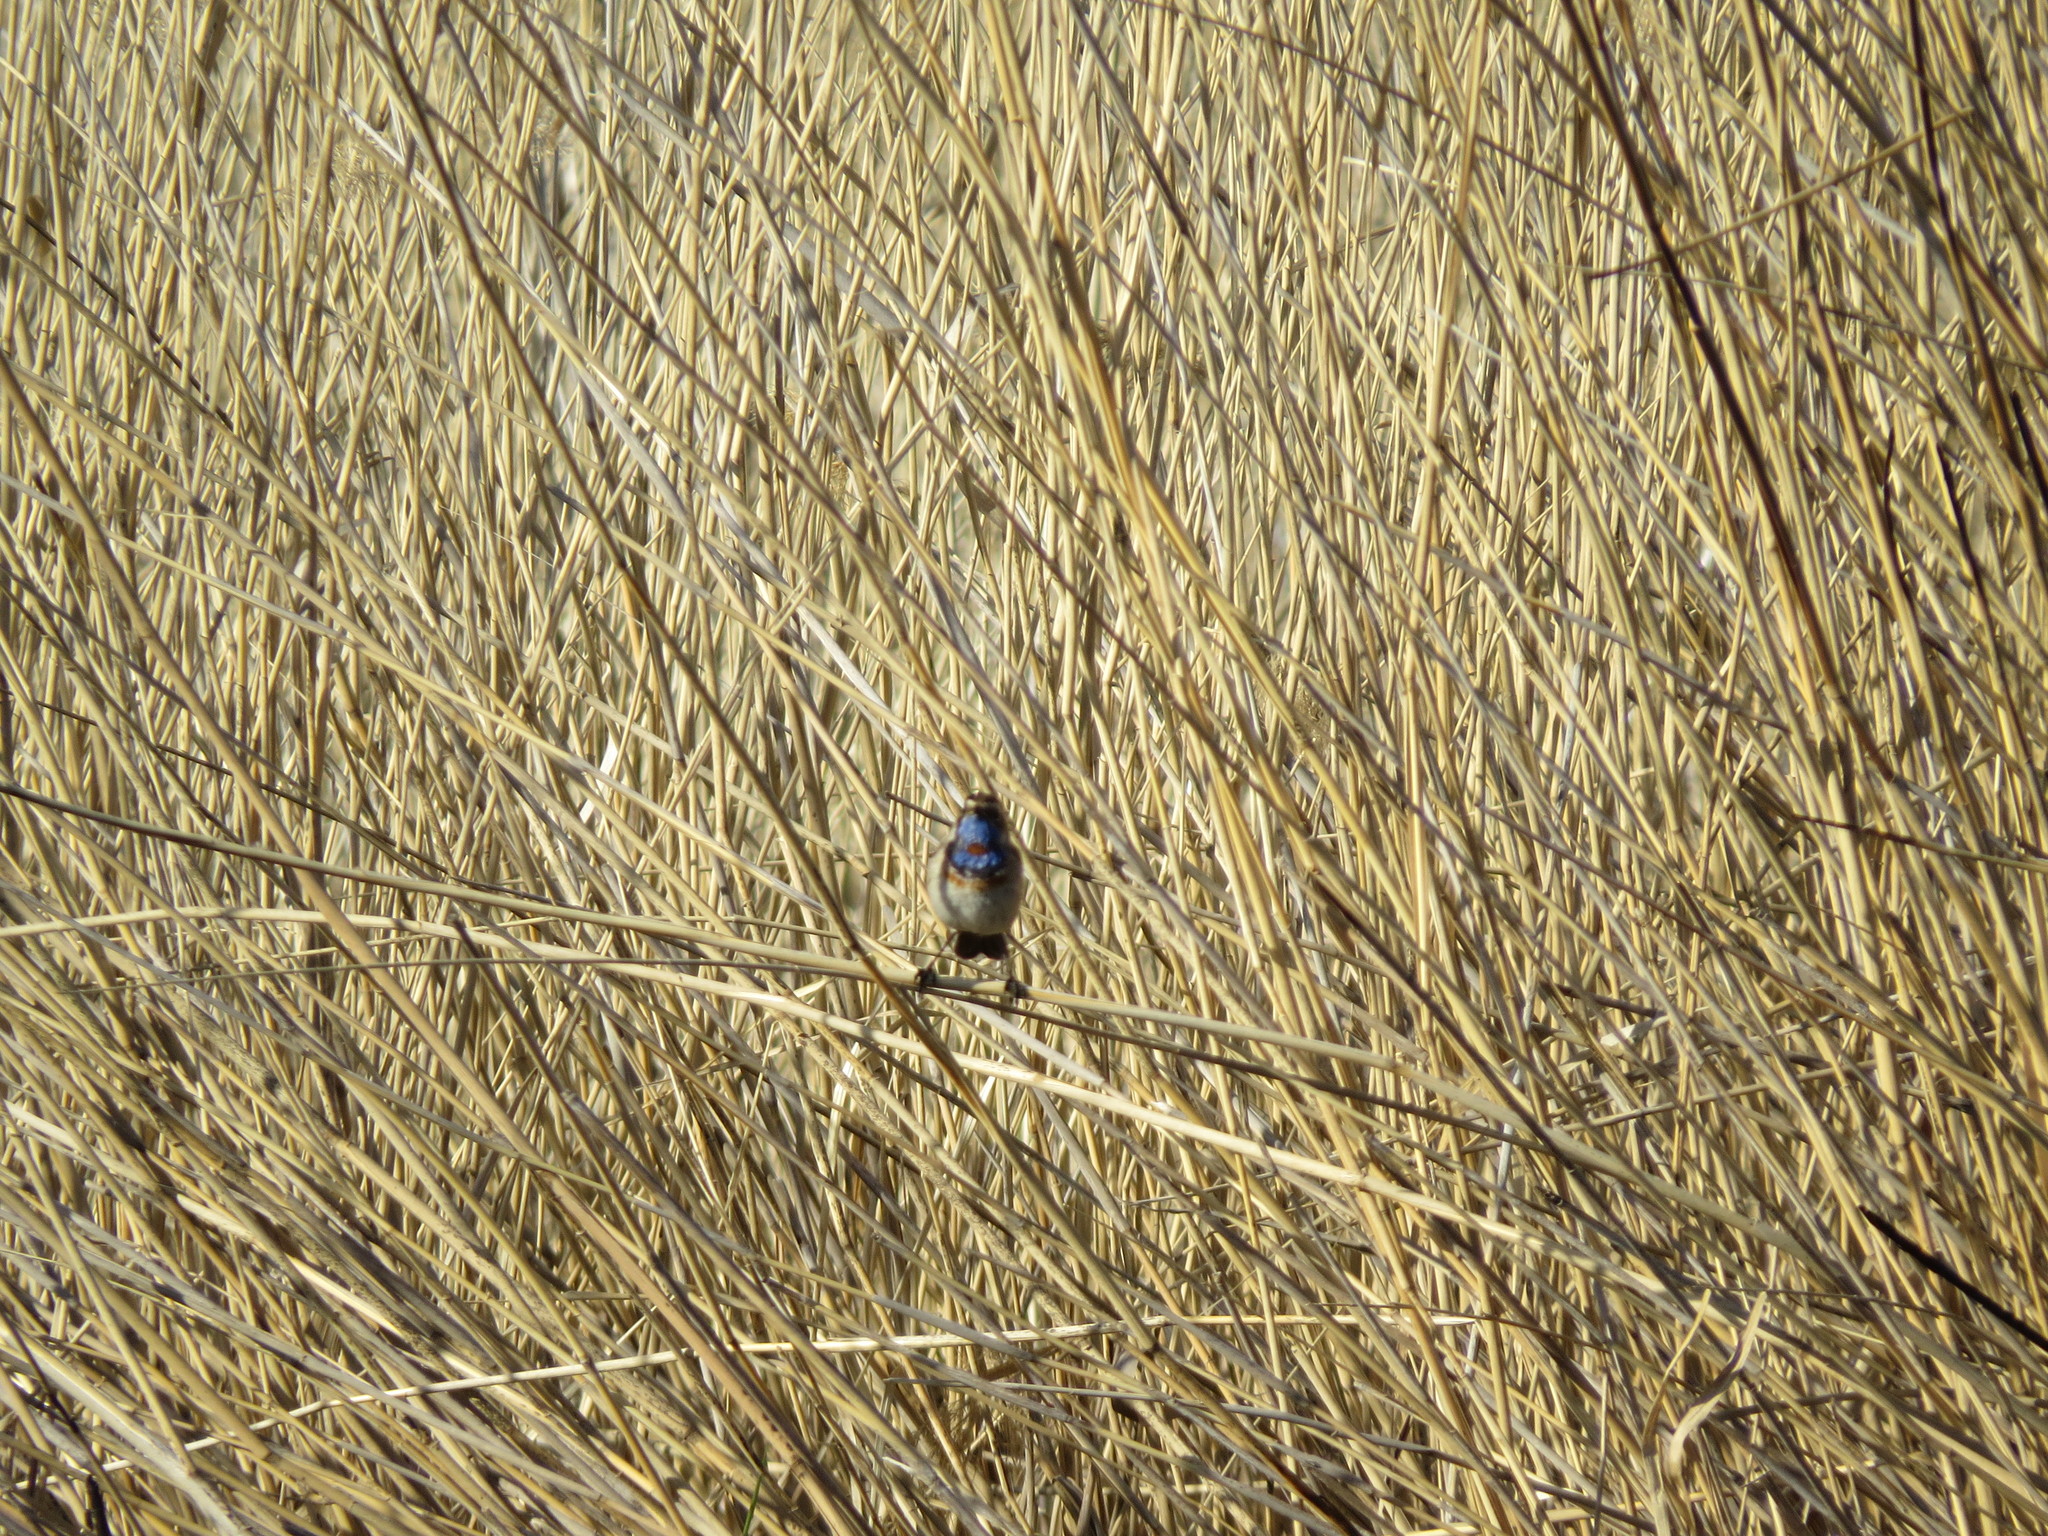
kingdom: Animalia
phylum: Chordata
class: Aves
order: Passeriformes
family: Muscicapidae
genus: Luscinia
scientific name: Luscinia svecica
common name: Bluethroat
